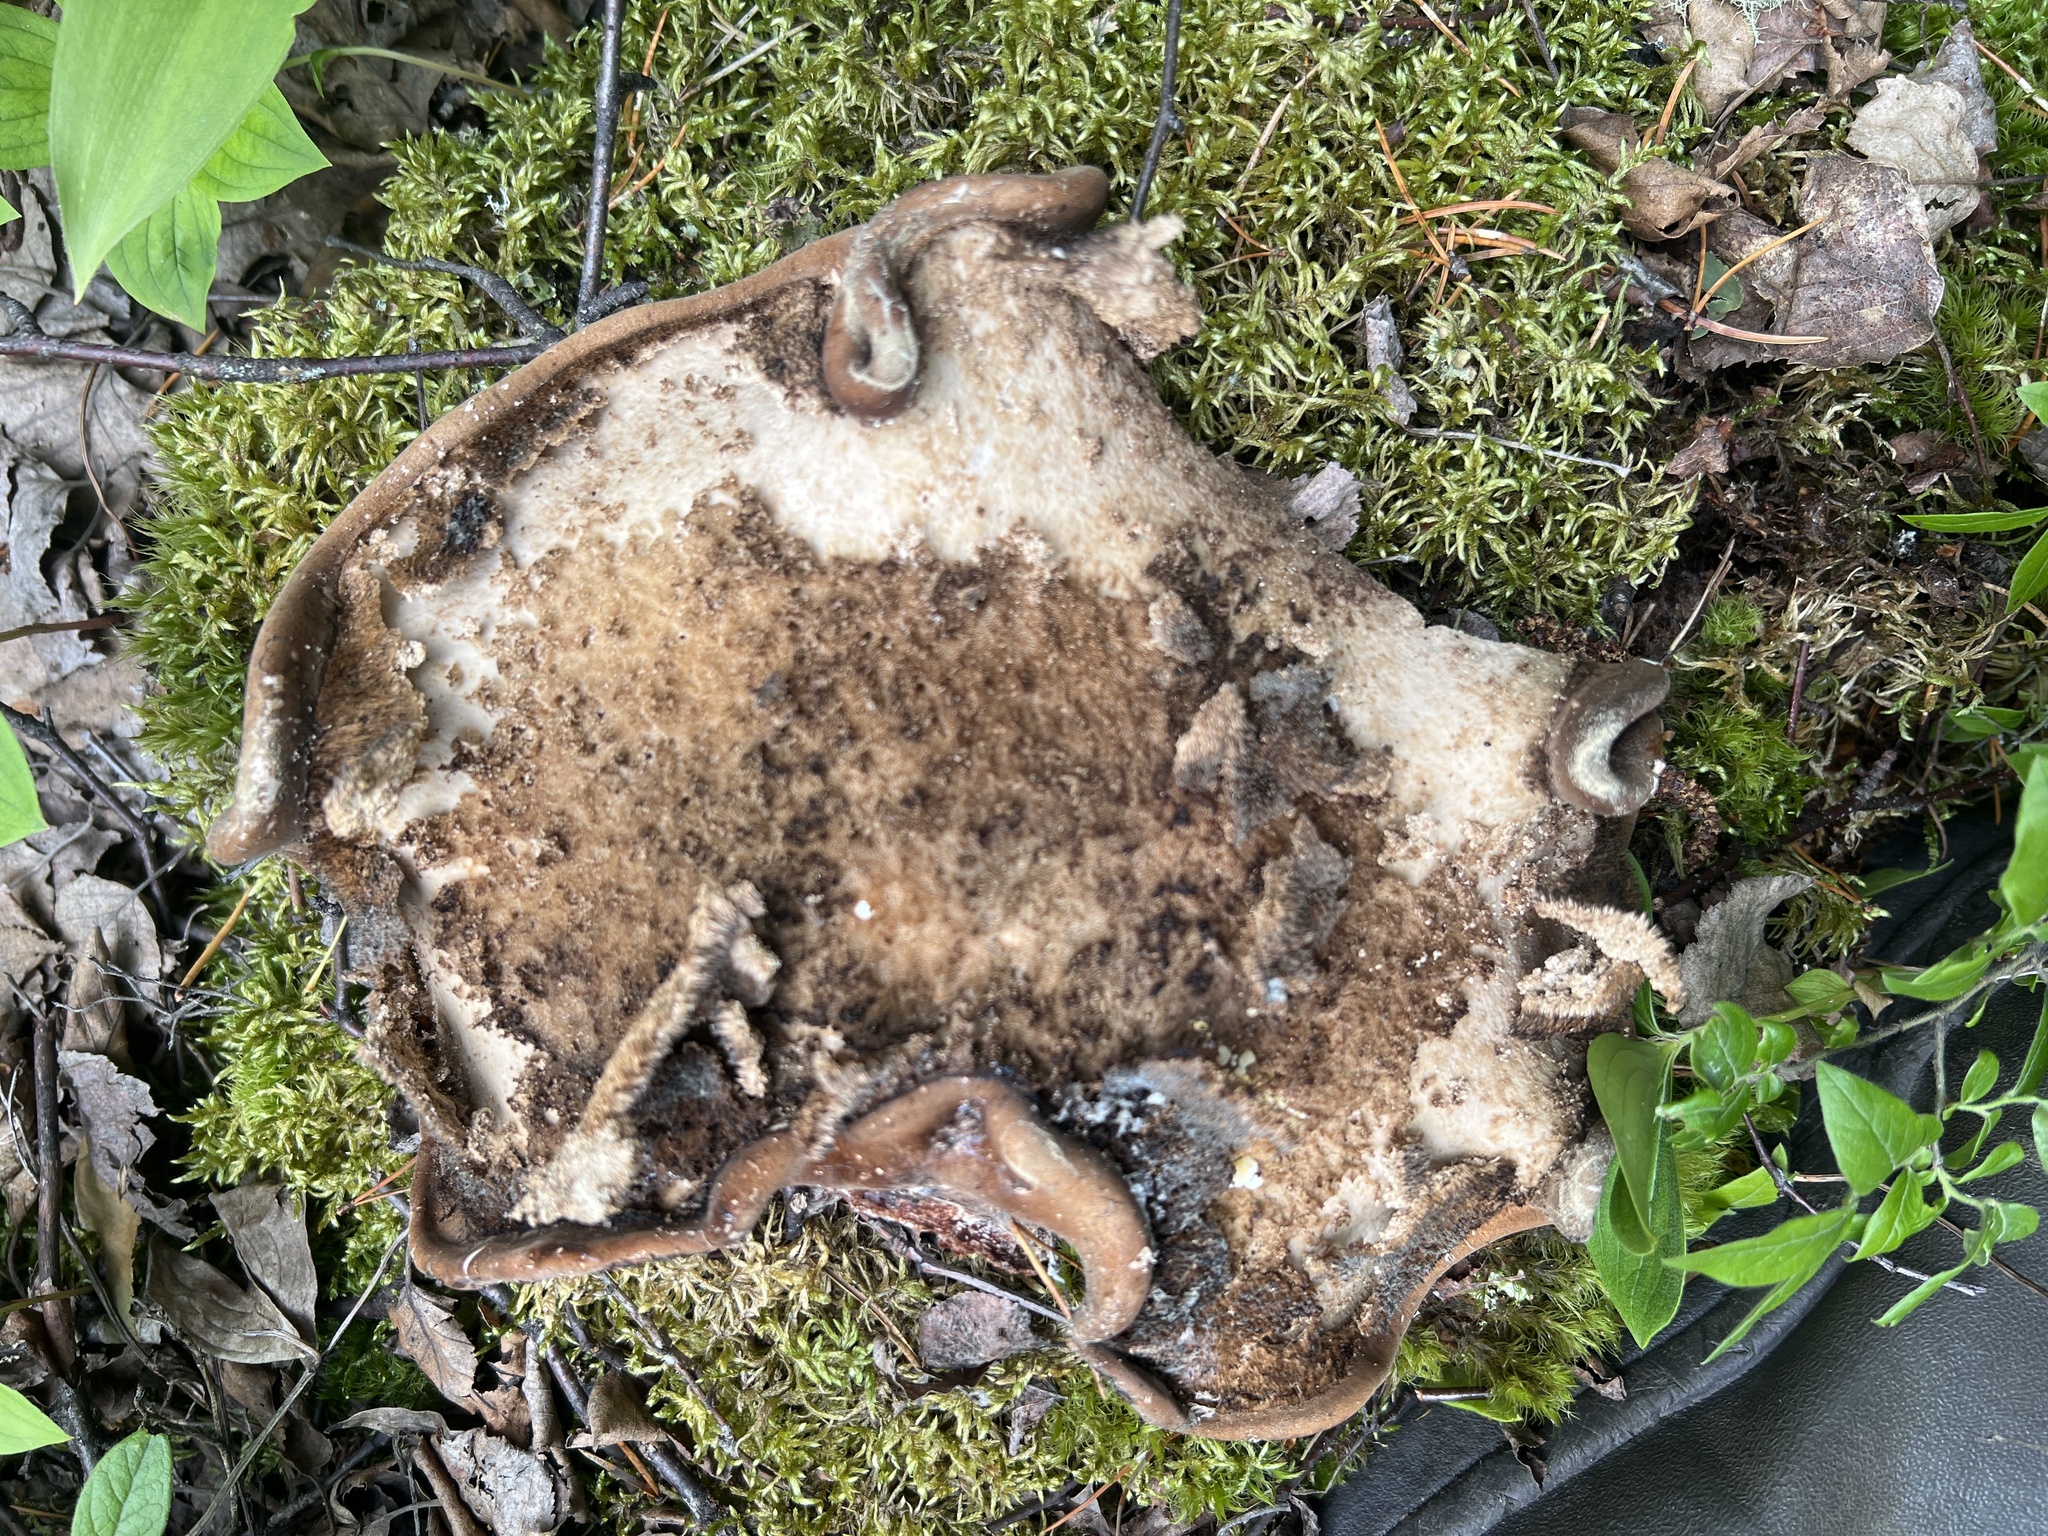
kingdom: Fungi
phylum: Basidiomycota
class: Agaricomycetes
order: Polyporales
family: Fomitopsidaceae
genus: Fomitopsis
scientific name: Fomitopsis betulina
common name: Birch polypore
